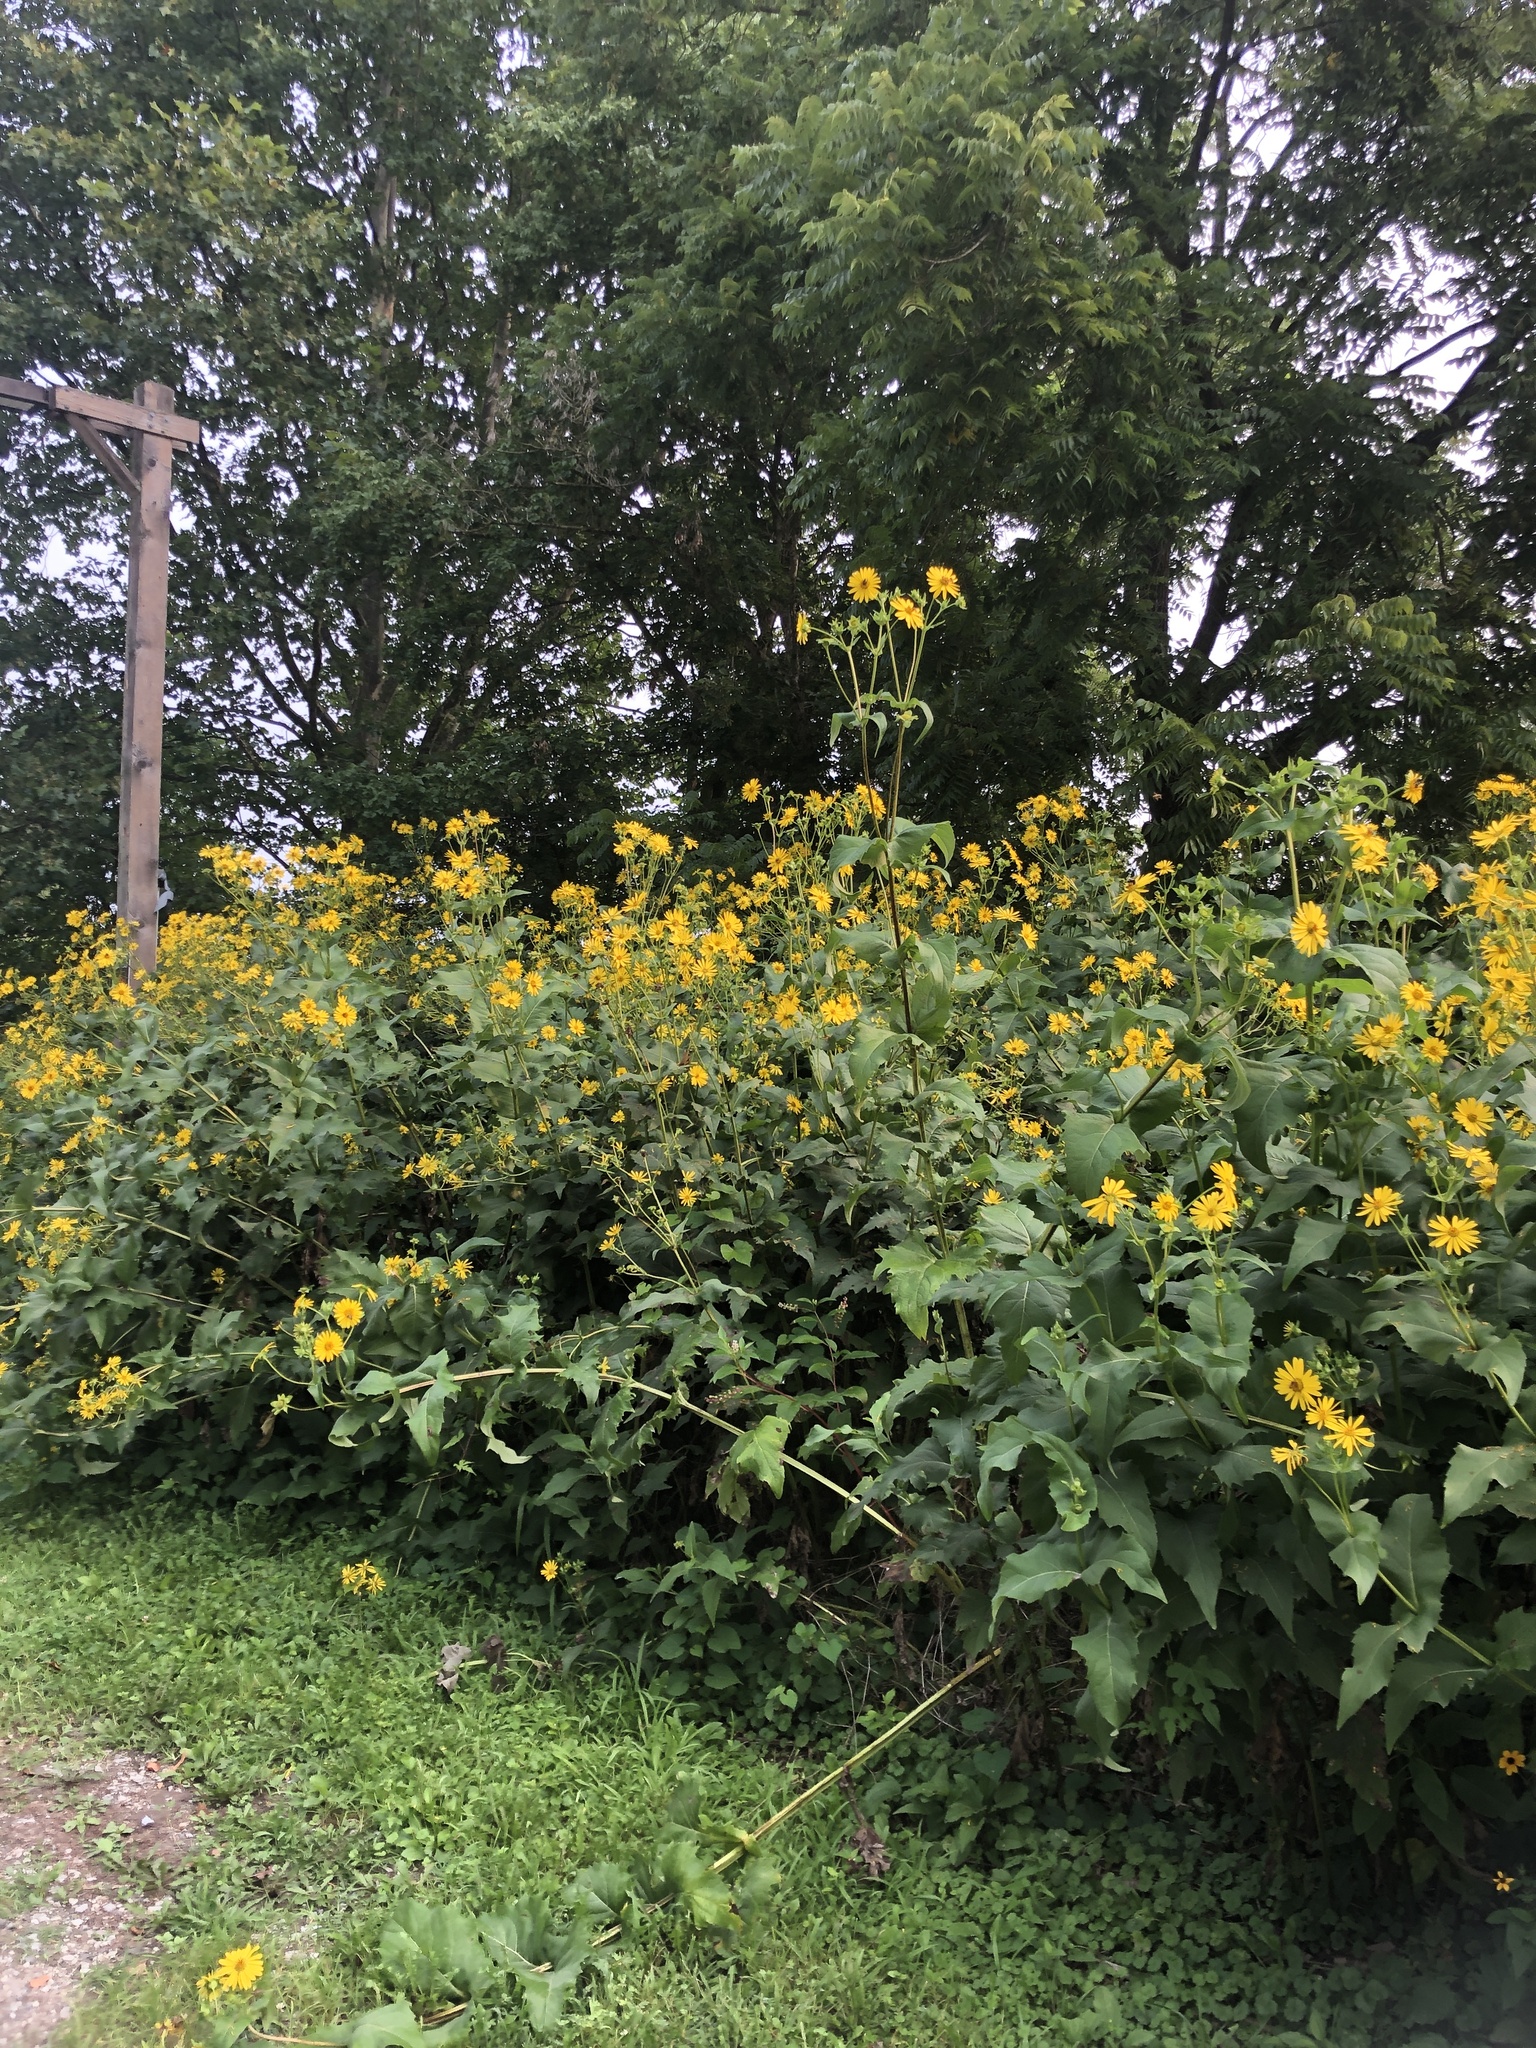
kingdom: Plantae
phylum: Tracheophyta
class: Magnoliopsida
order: Asterales
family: Asteraceae
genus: Silphium
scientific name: Silphium perfoliatum
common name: Cup-plant
